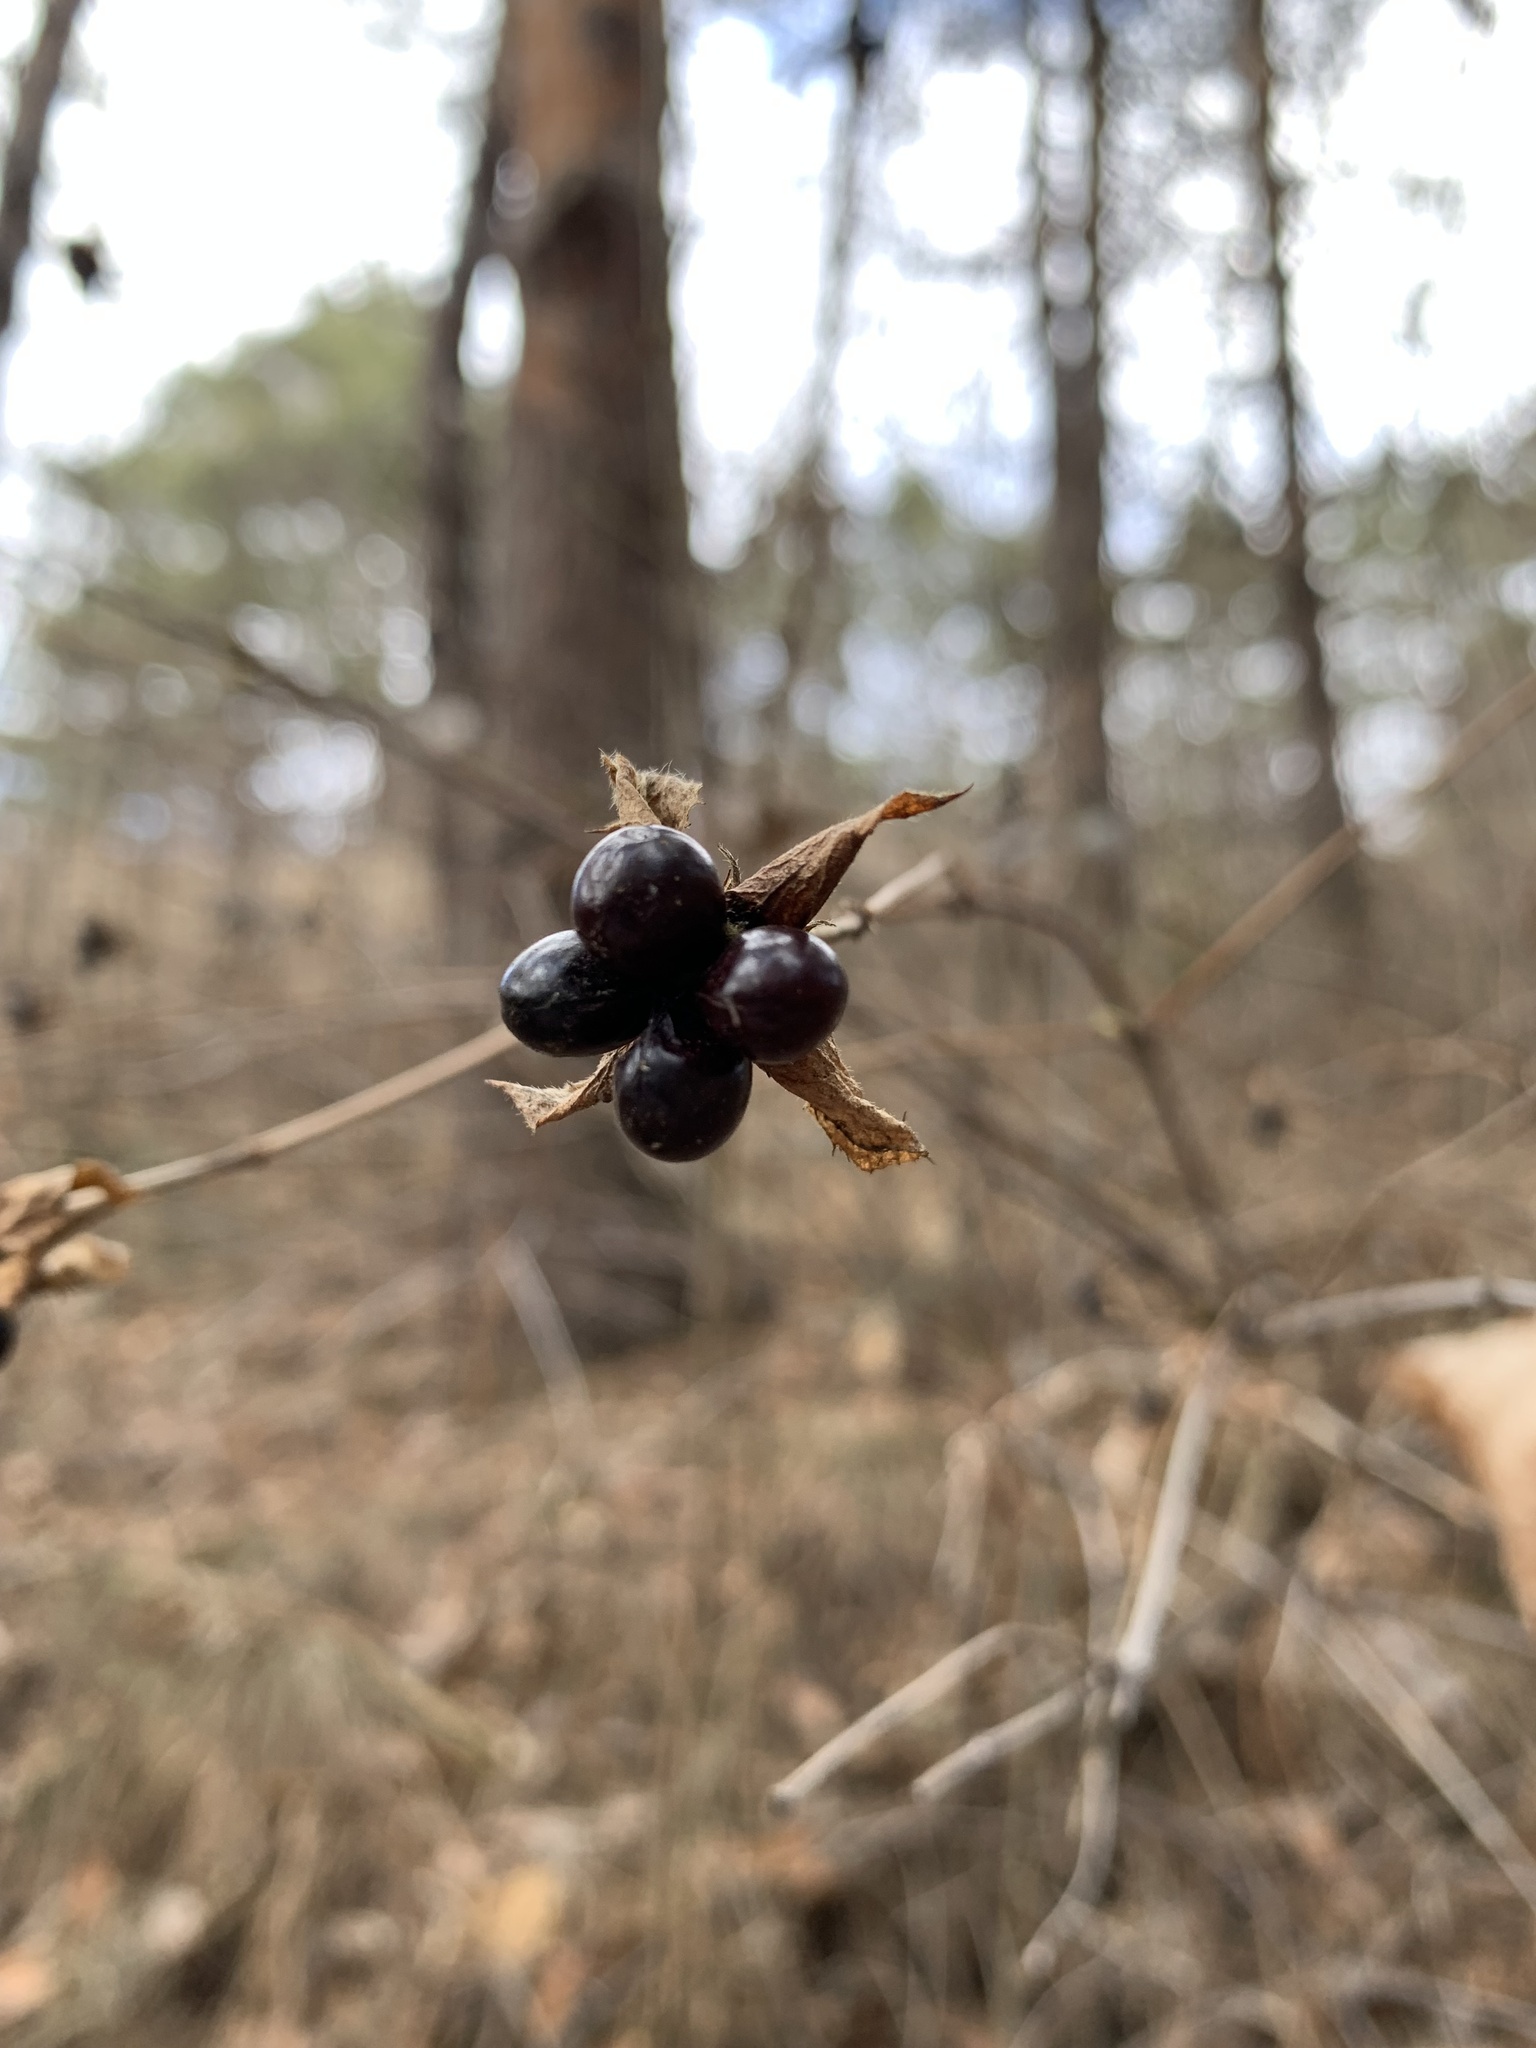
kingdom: Plantae
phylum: Tracheophyta
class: Magnoliopsida
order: Rosales
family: Rosaceae
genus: Rhodotypos
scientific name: Rhodotypos scandens
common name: Jetbead
